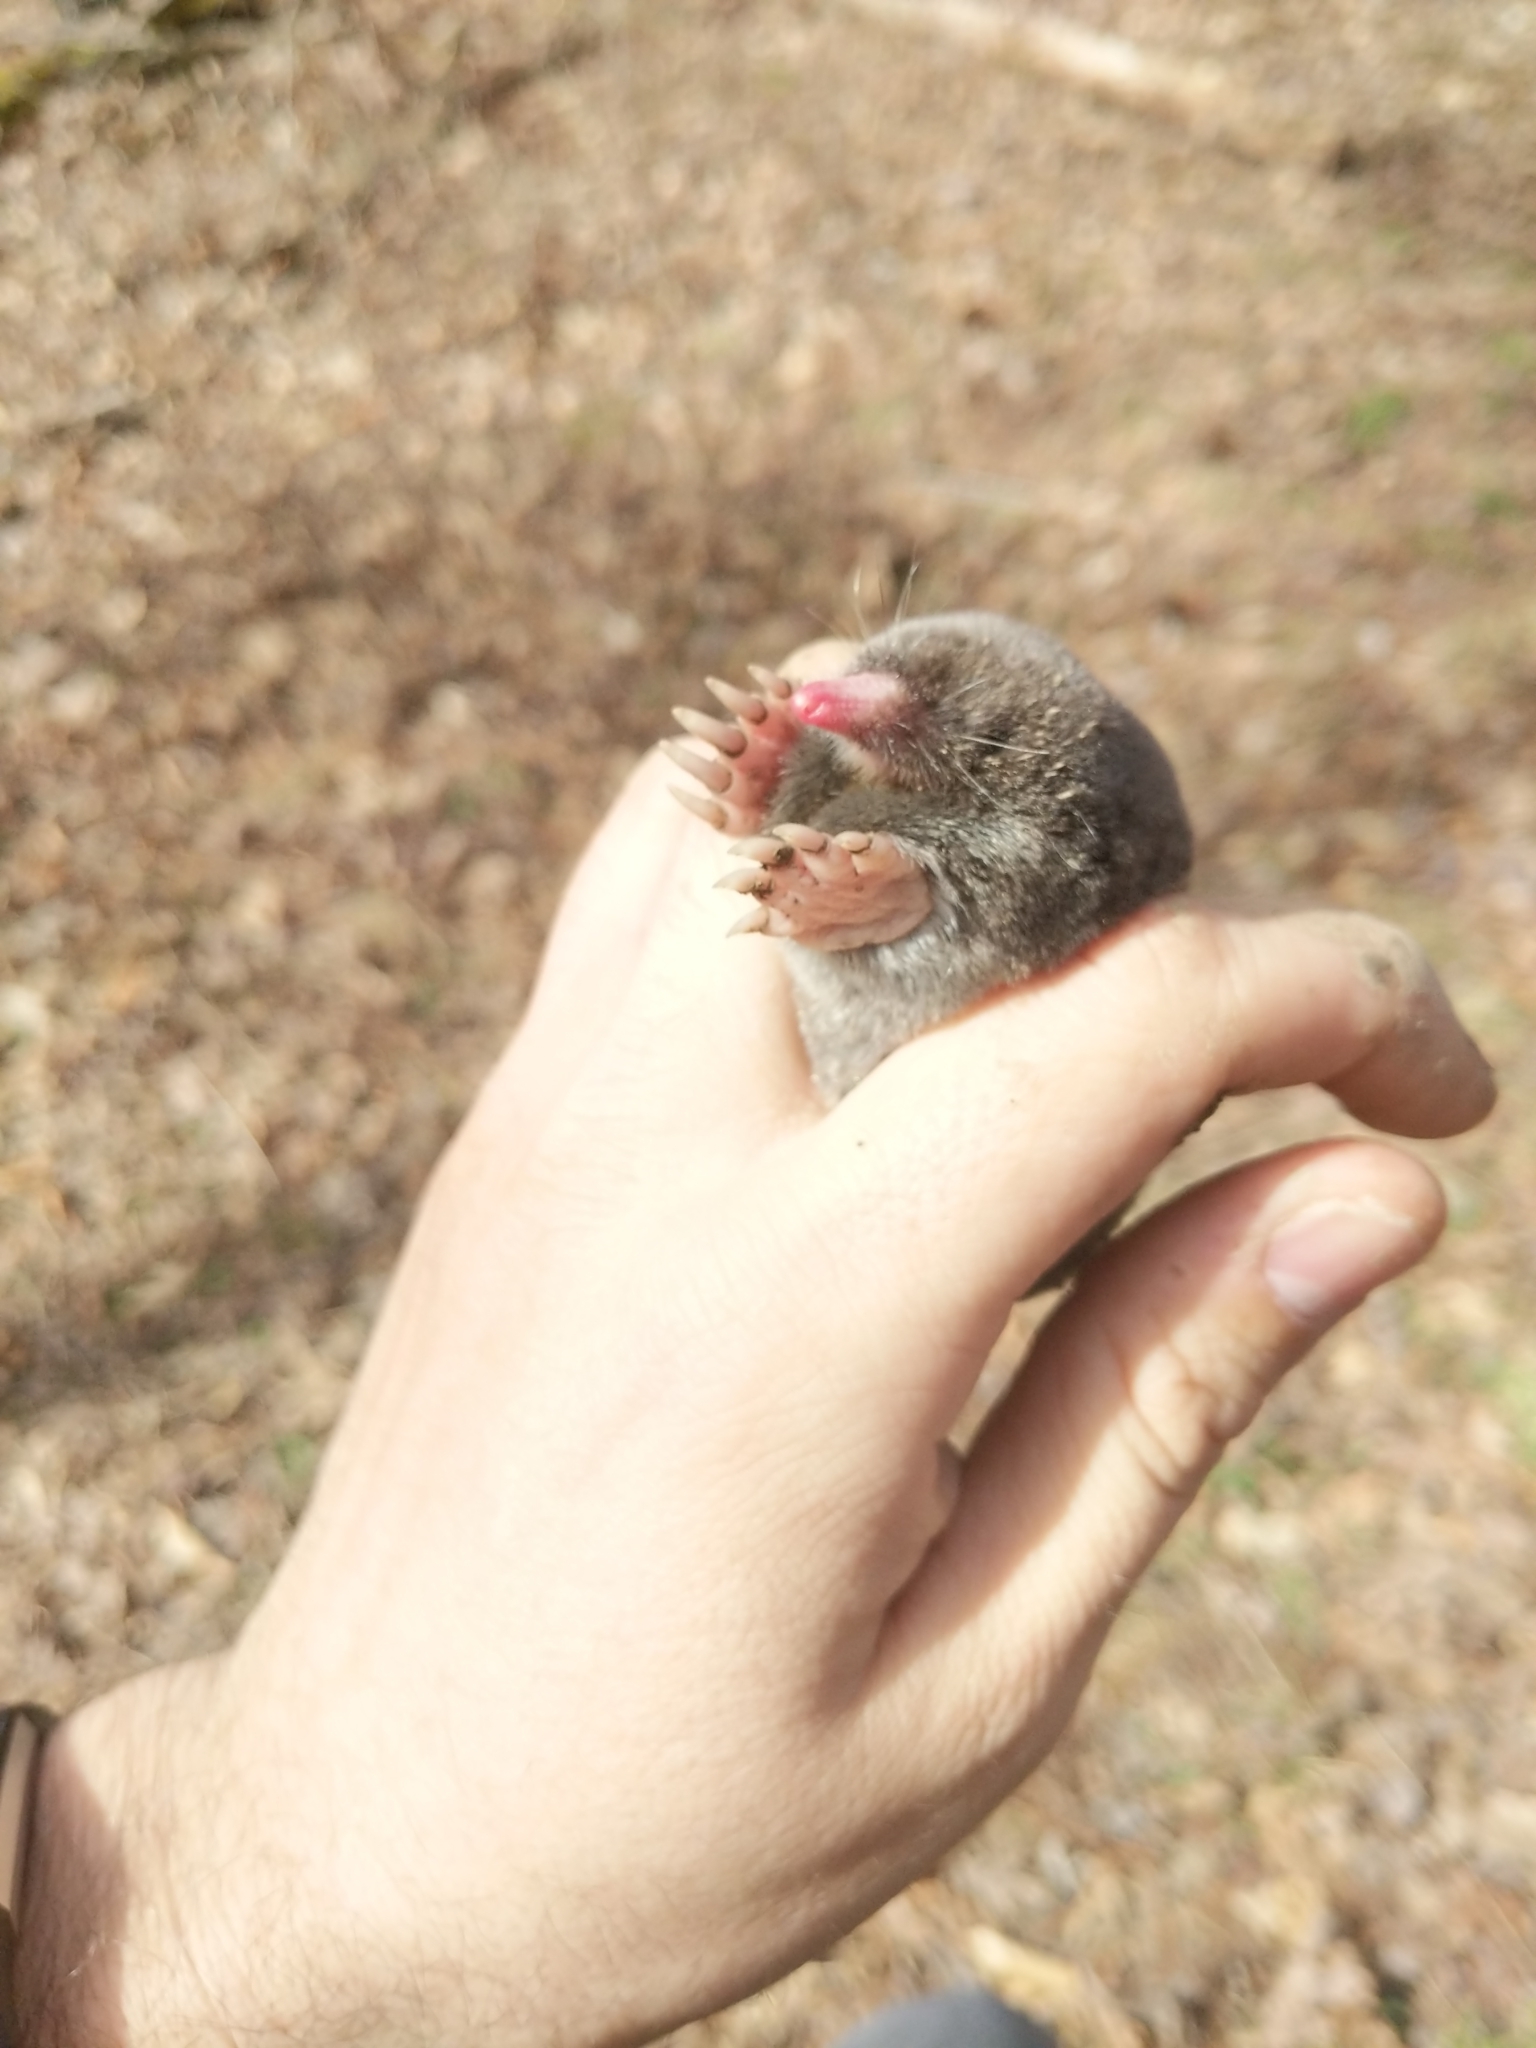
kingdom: Animalia
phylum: Chordata
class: Mammalia
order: Soricomorpha
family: Talpidae
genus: Scalopus
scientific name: Scalopus aquaticus
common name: Eastern mole
